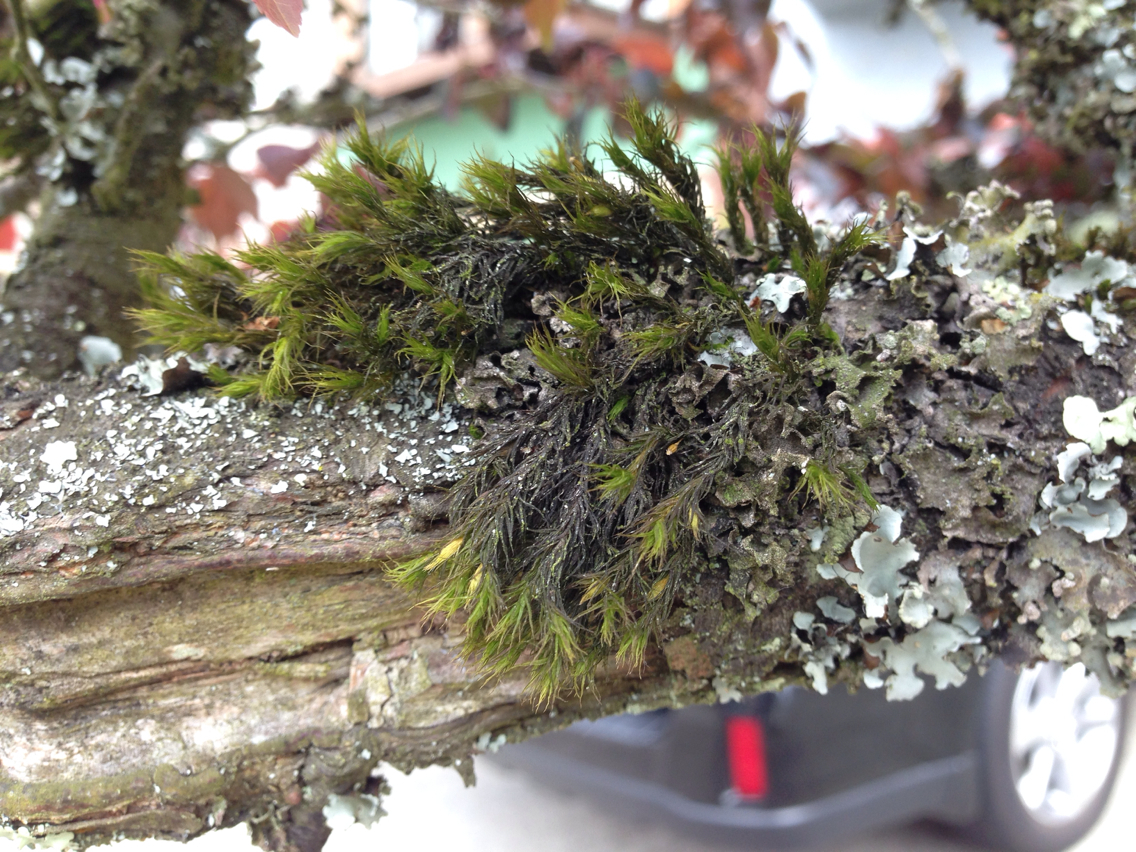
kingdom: Plantae
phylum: Bryophyta
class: Bryopsida
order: Orthotrichales
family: Orthotrichaceae
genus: Pulvigera
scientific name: Pulvigera papillosa
